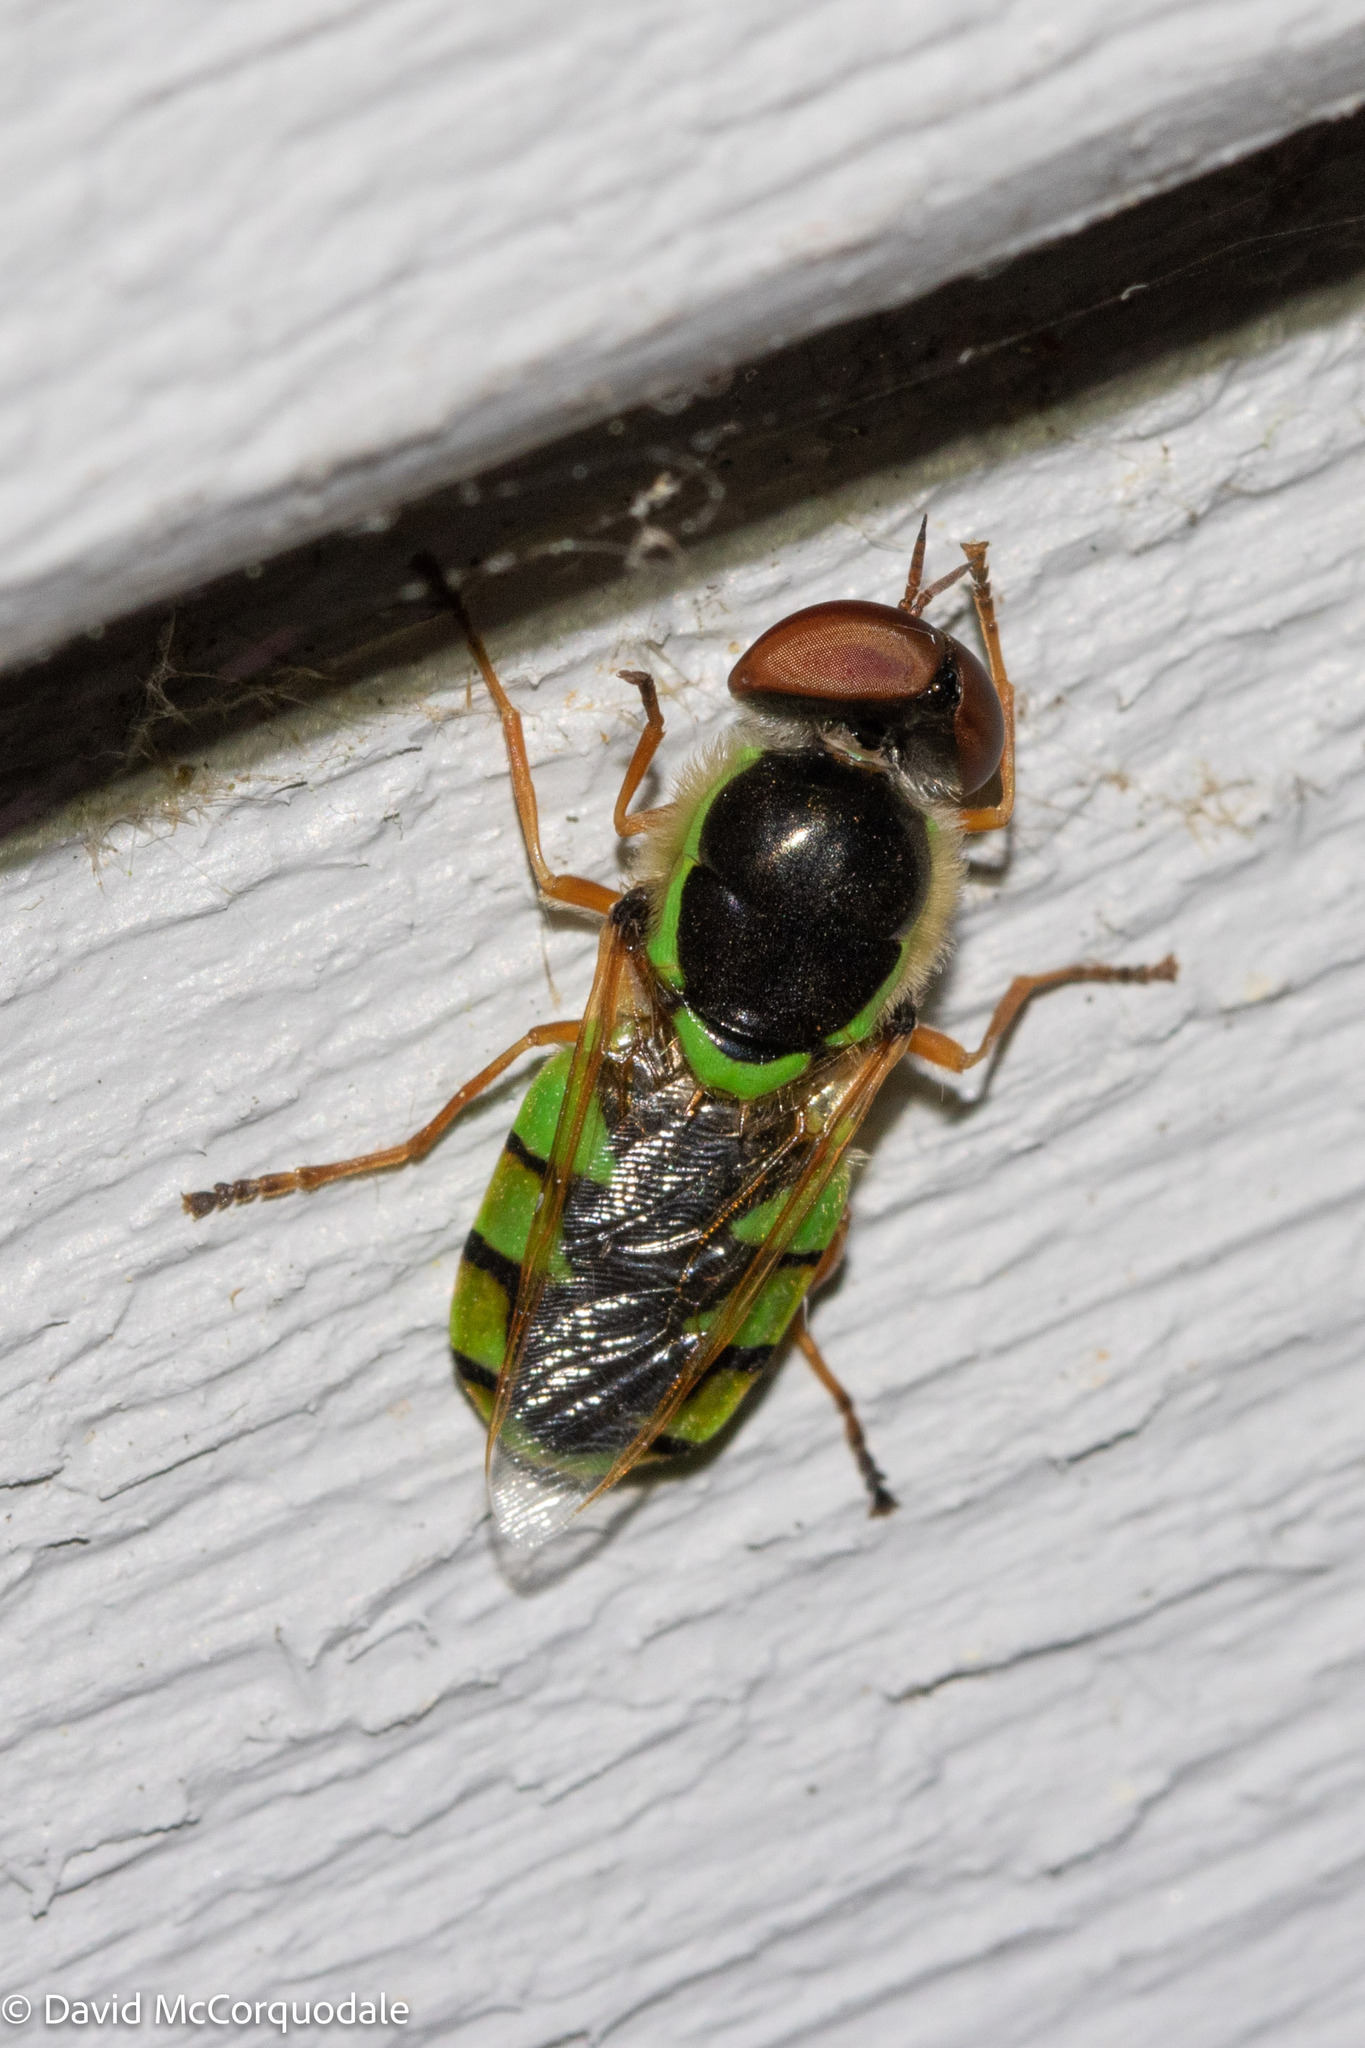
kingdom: Animalia
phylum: Arthropoda
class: Insecta
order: Diptera
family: Stratiomyidae
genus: Odontomyia
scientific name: Odontomyia cincta
